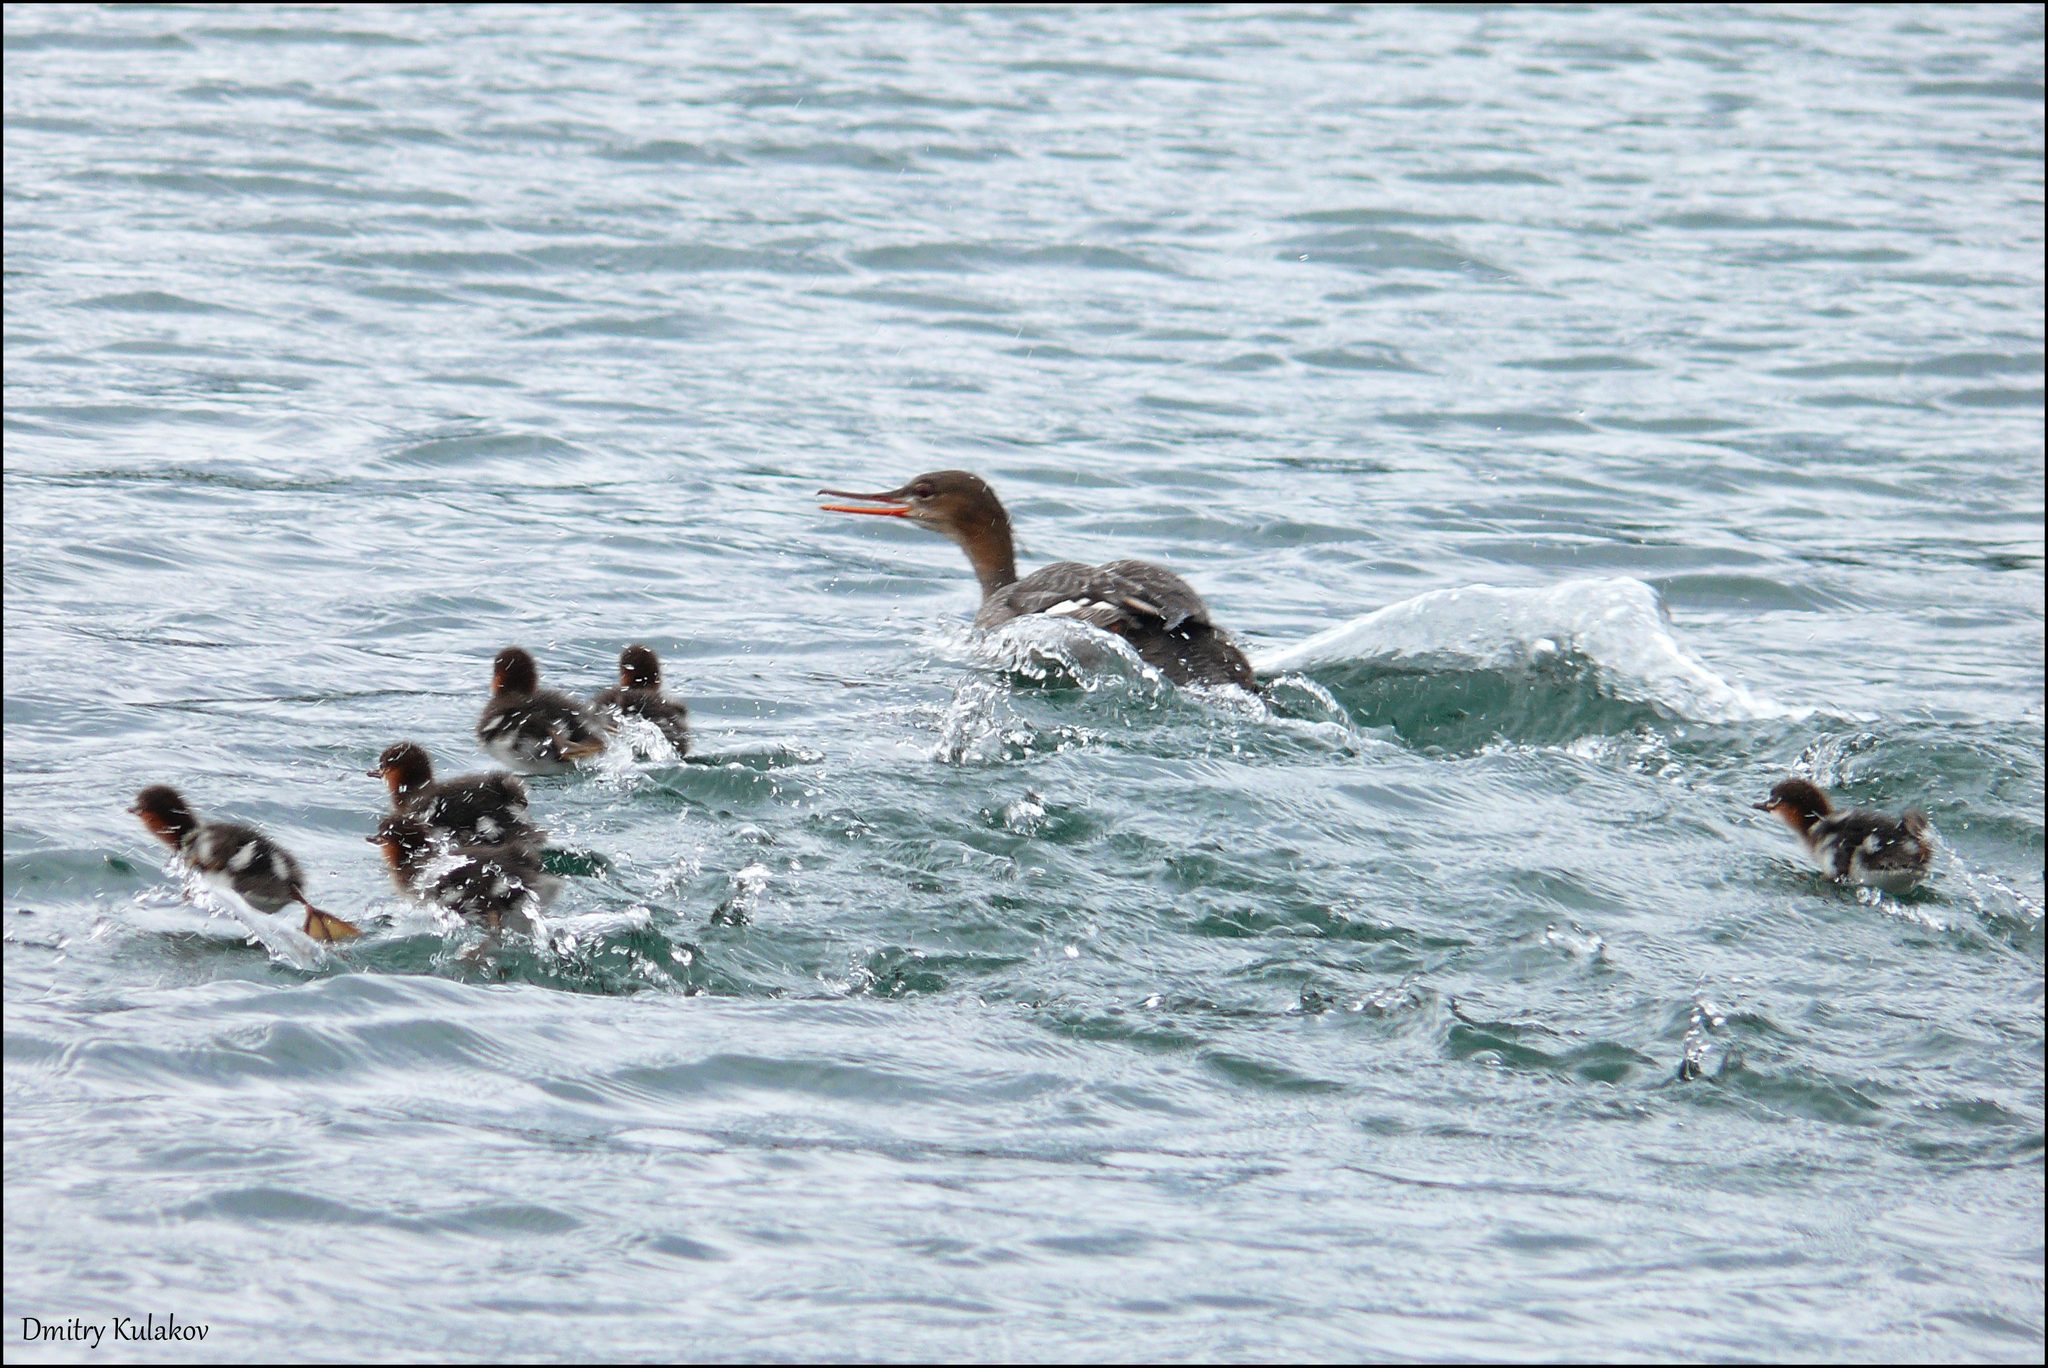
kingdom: Animalia
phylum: Chordata
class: Aves
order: Anseriformes
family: Anatidae
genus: Mergus
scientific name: Mergus serrator
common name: Red-breasted merganser
